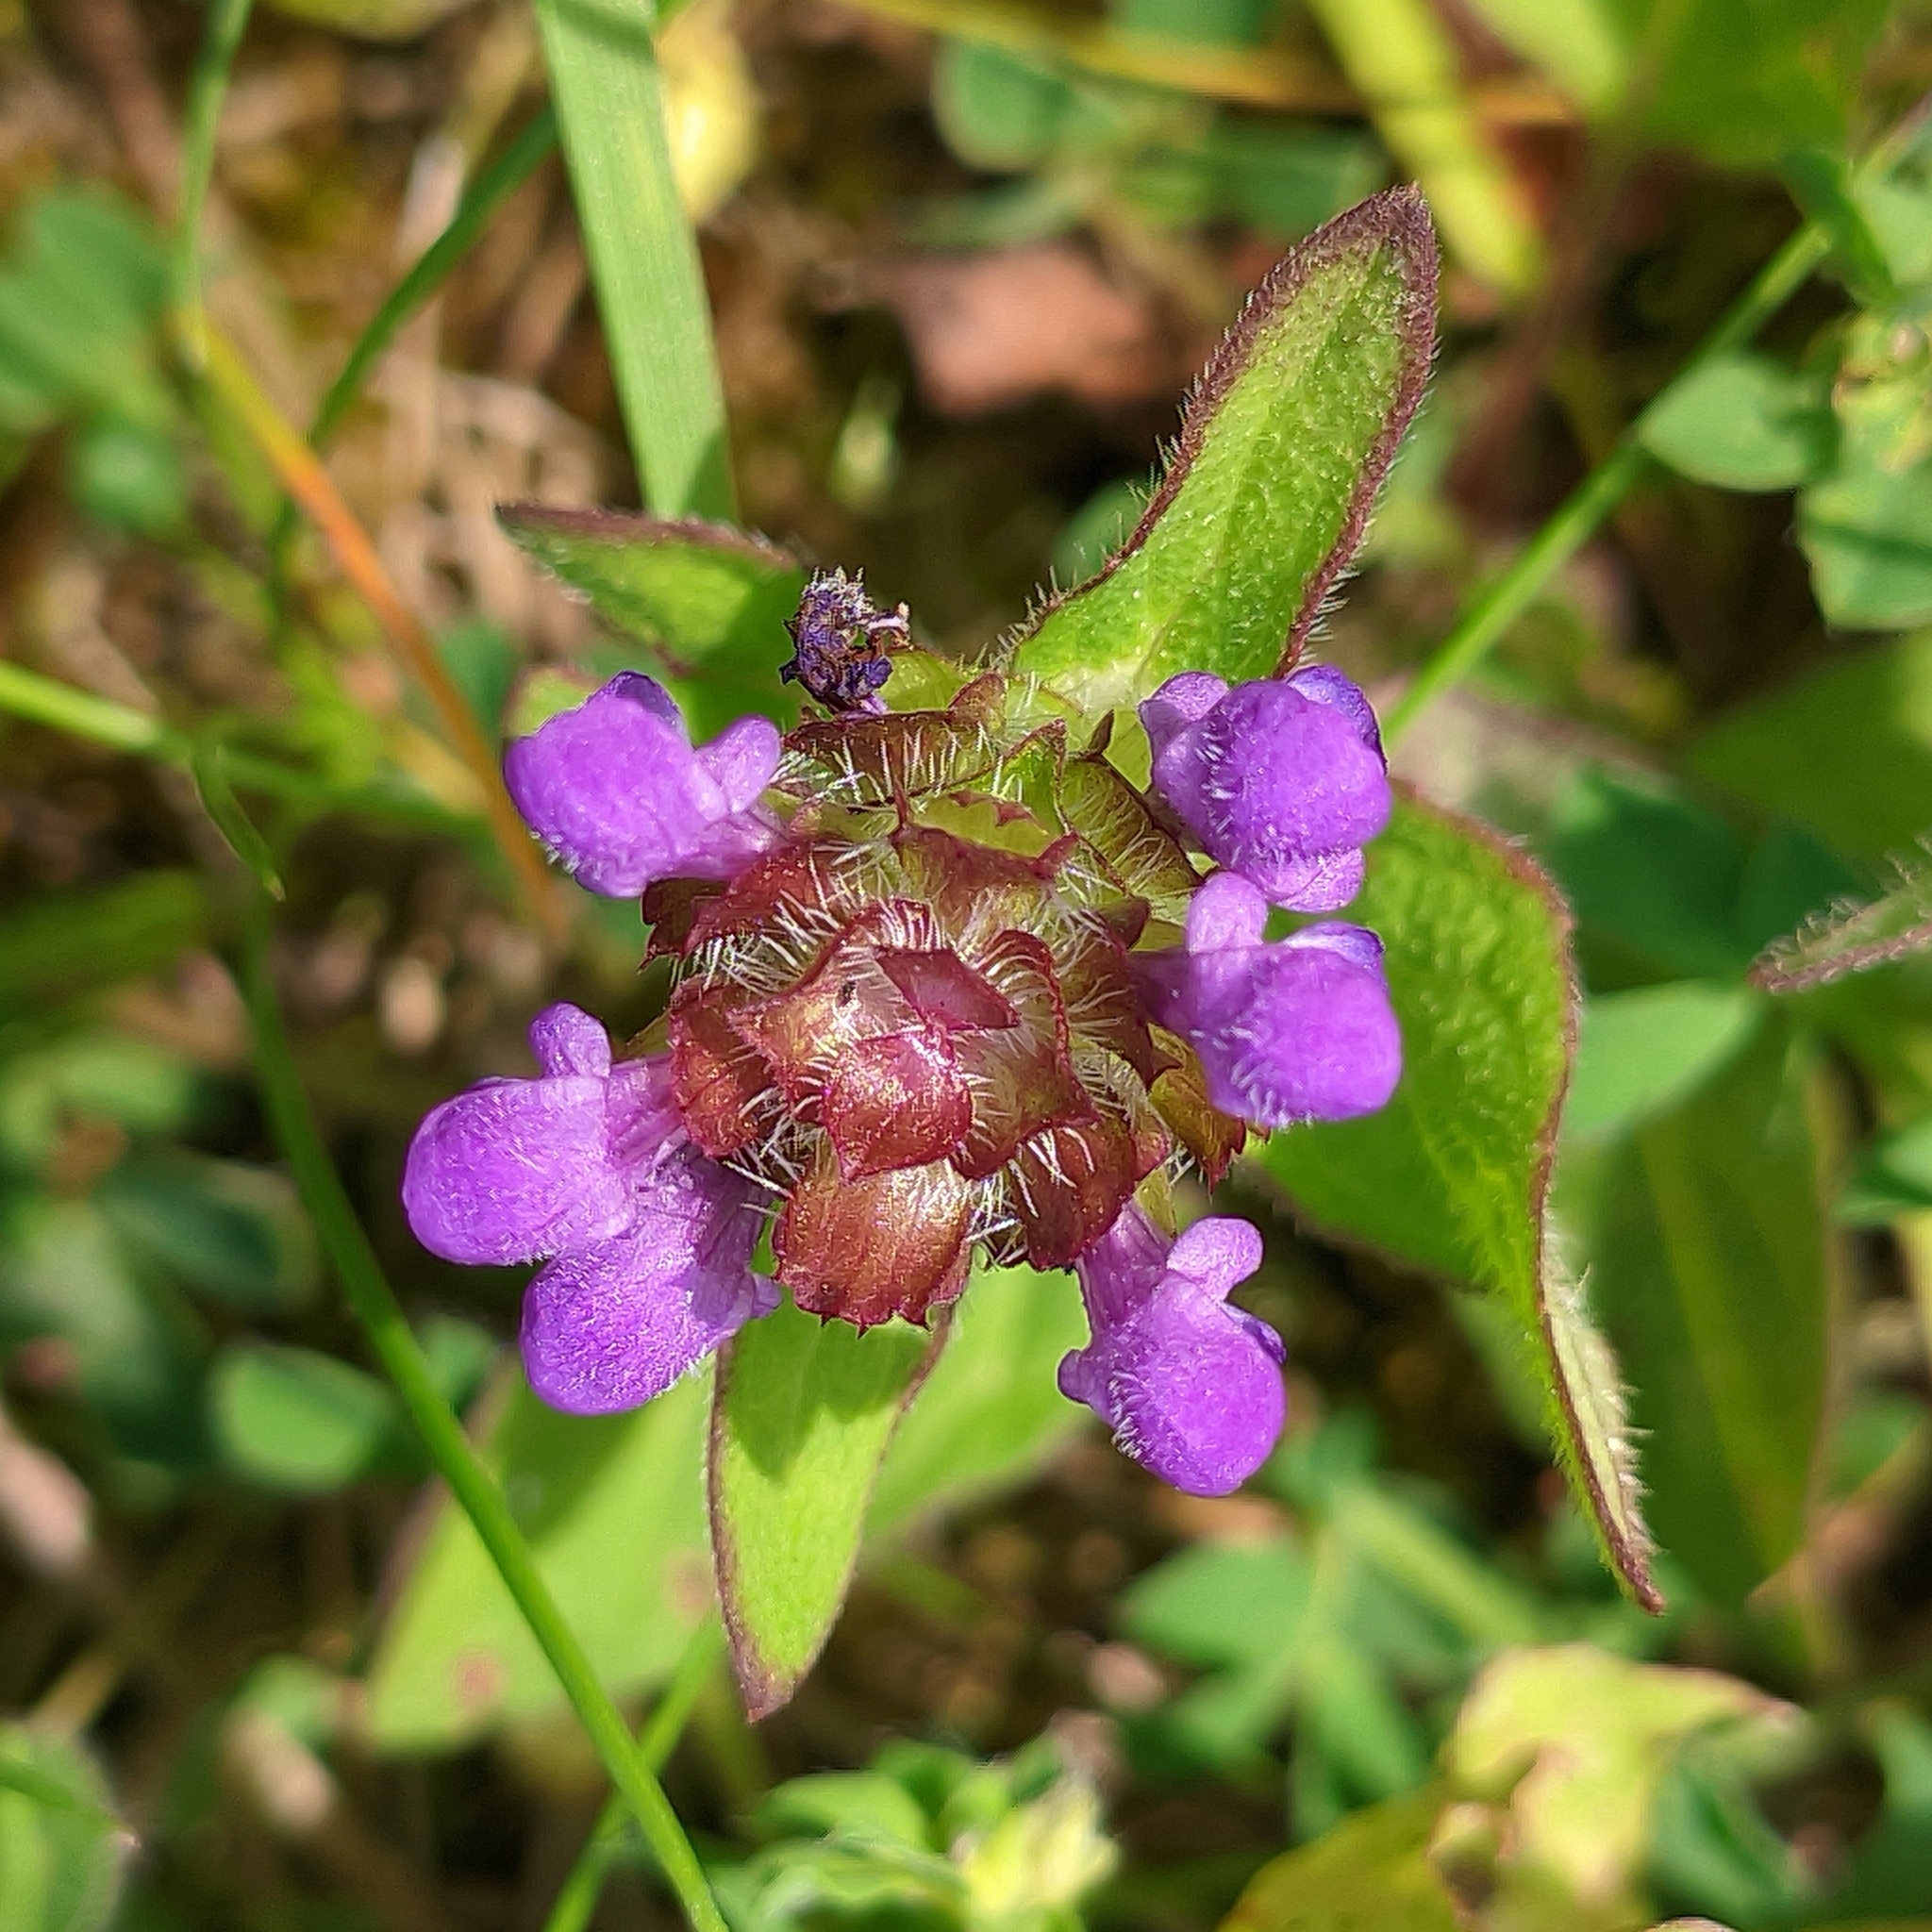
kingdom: Plantae
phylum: Tracheophyta
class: Magnoliopsida
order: Lamiales
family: Lamiaceae
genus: Prunella
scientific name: Prunella vulgaris
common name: Heal-all
